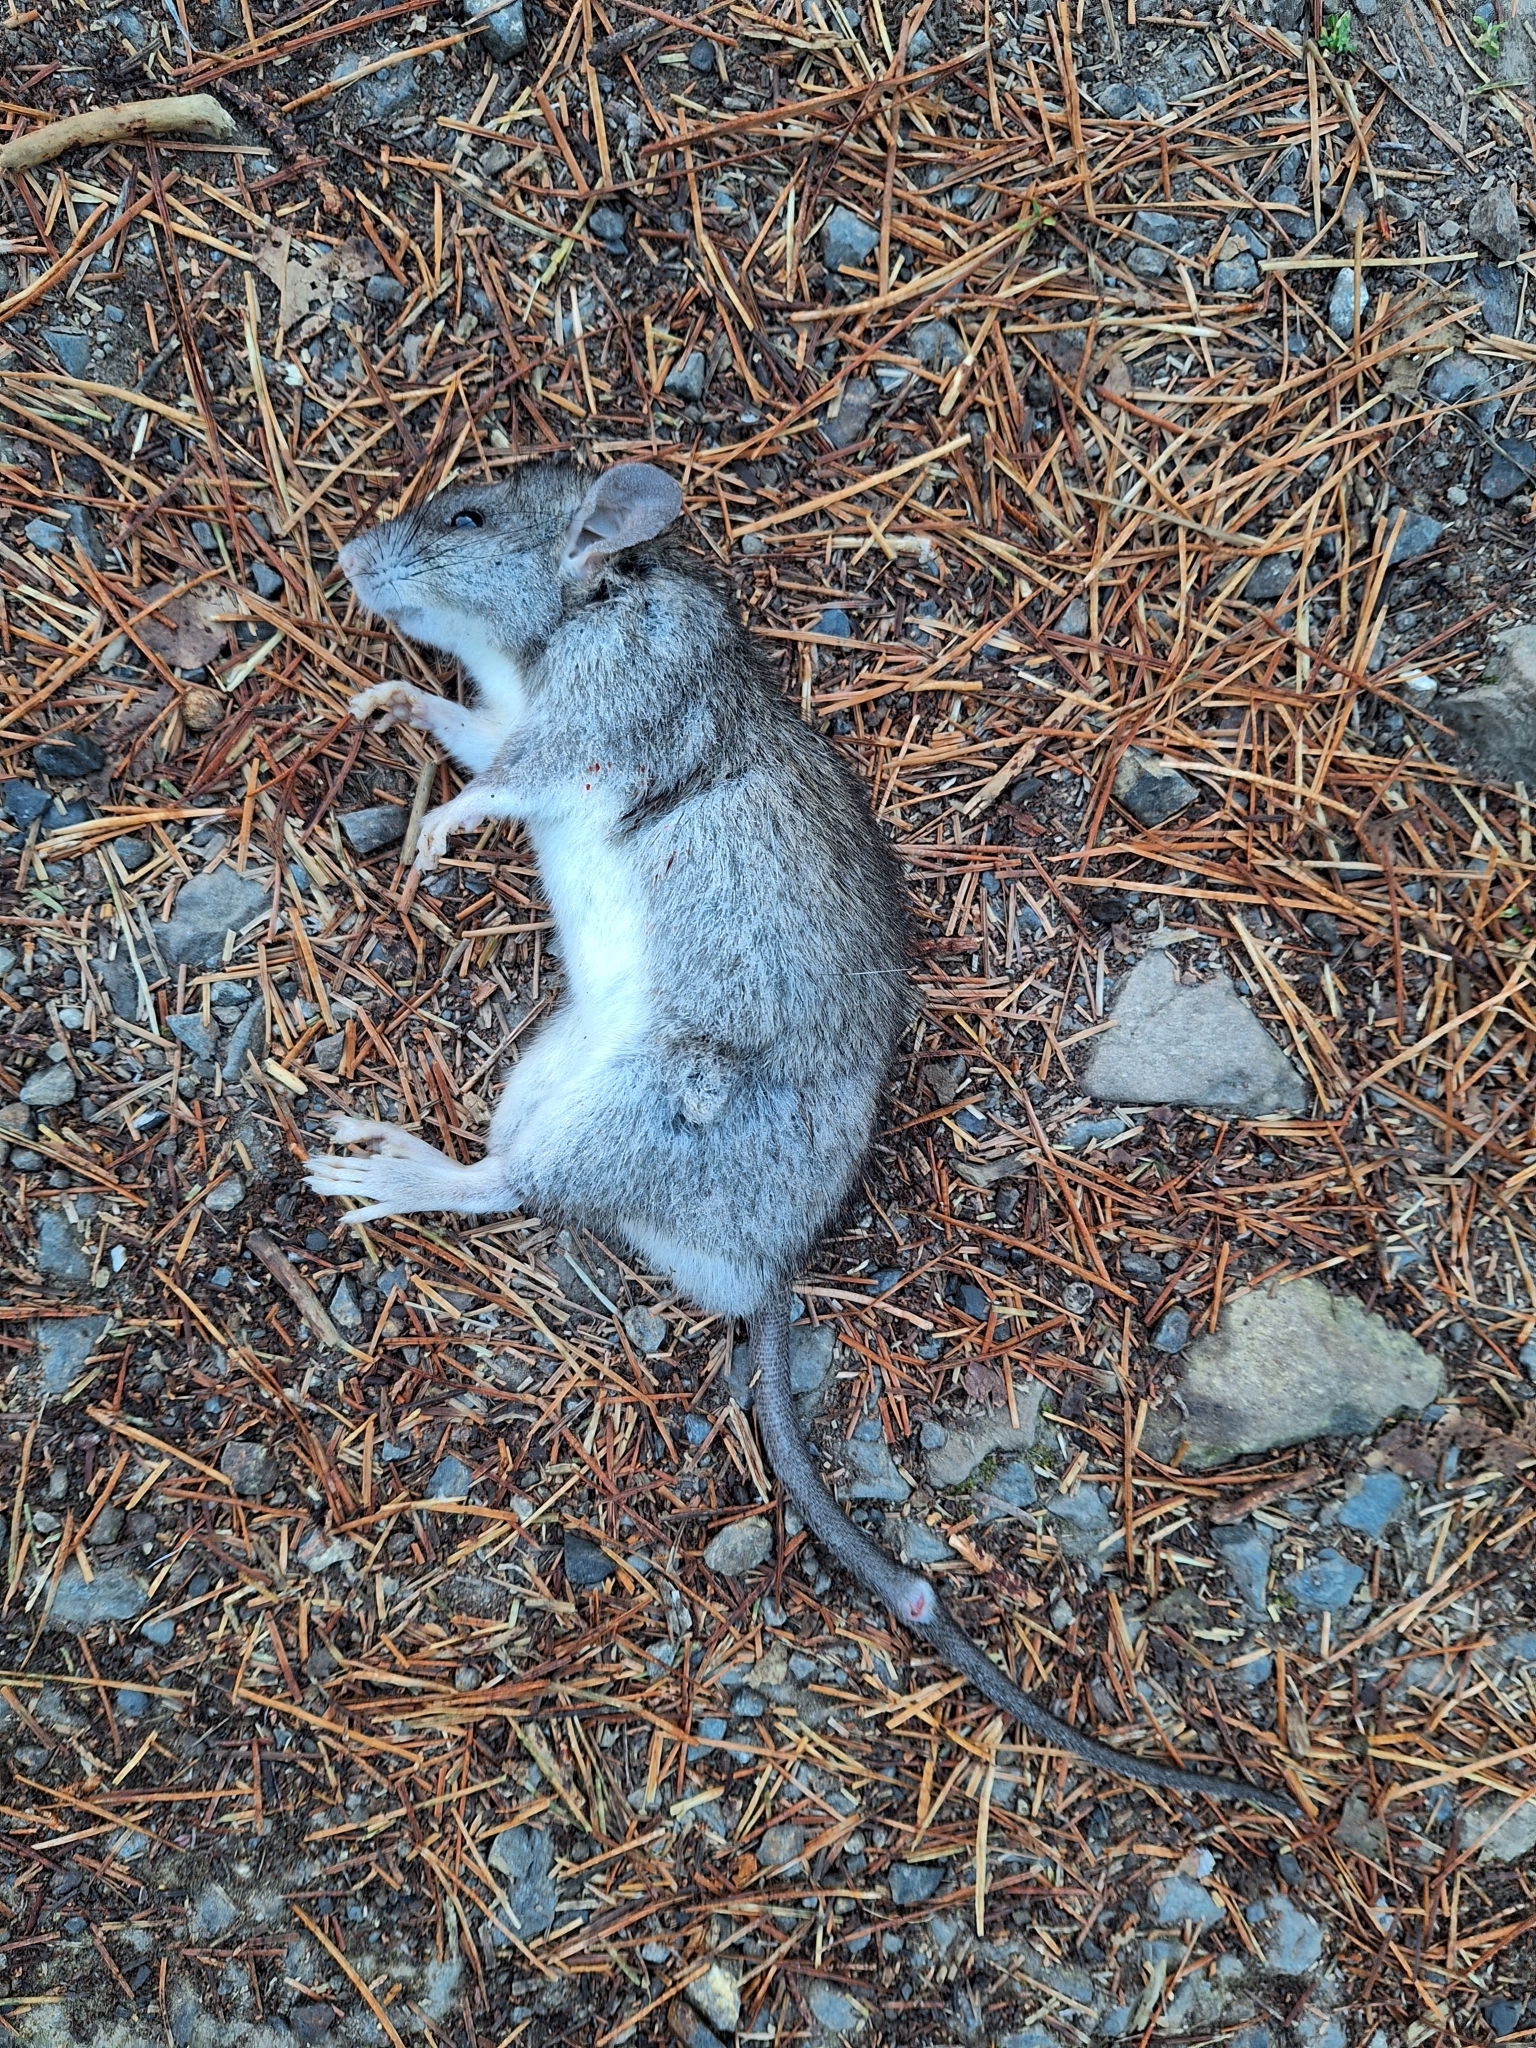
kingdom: Animalia
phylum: Chordata
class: Mammalia
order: Rodentia
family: Muridae
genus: Rattus
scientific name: Rattus rattus
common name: Black rat
